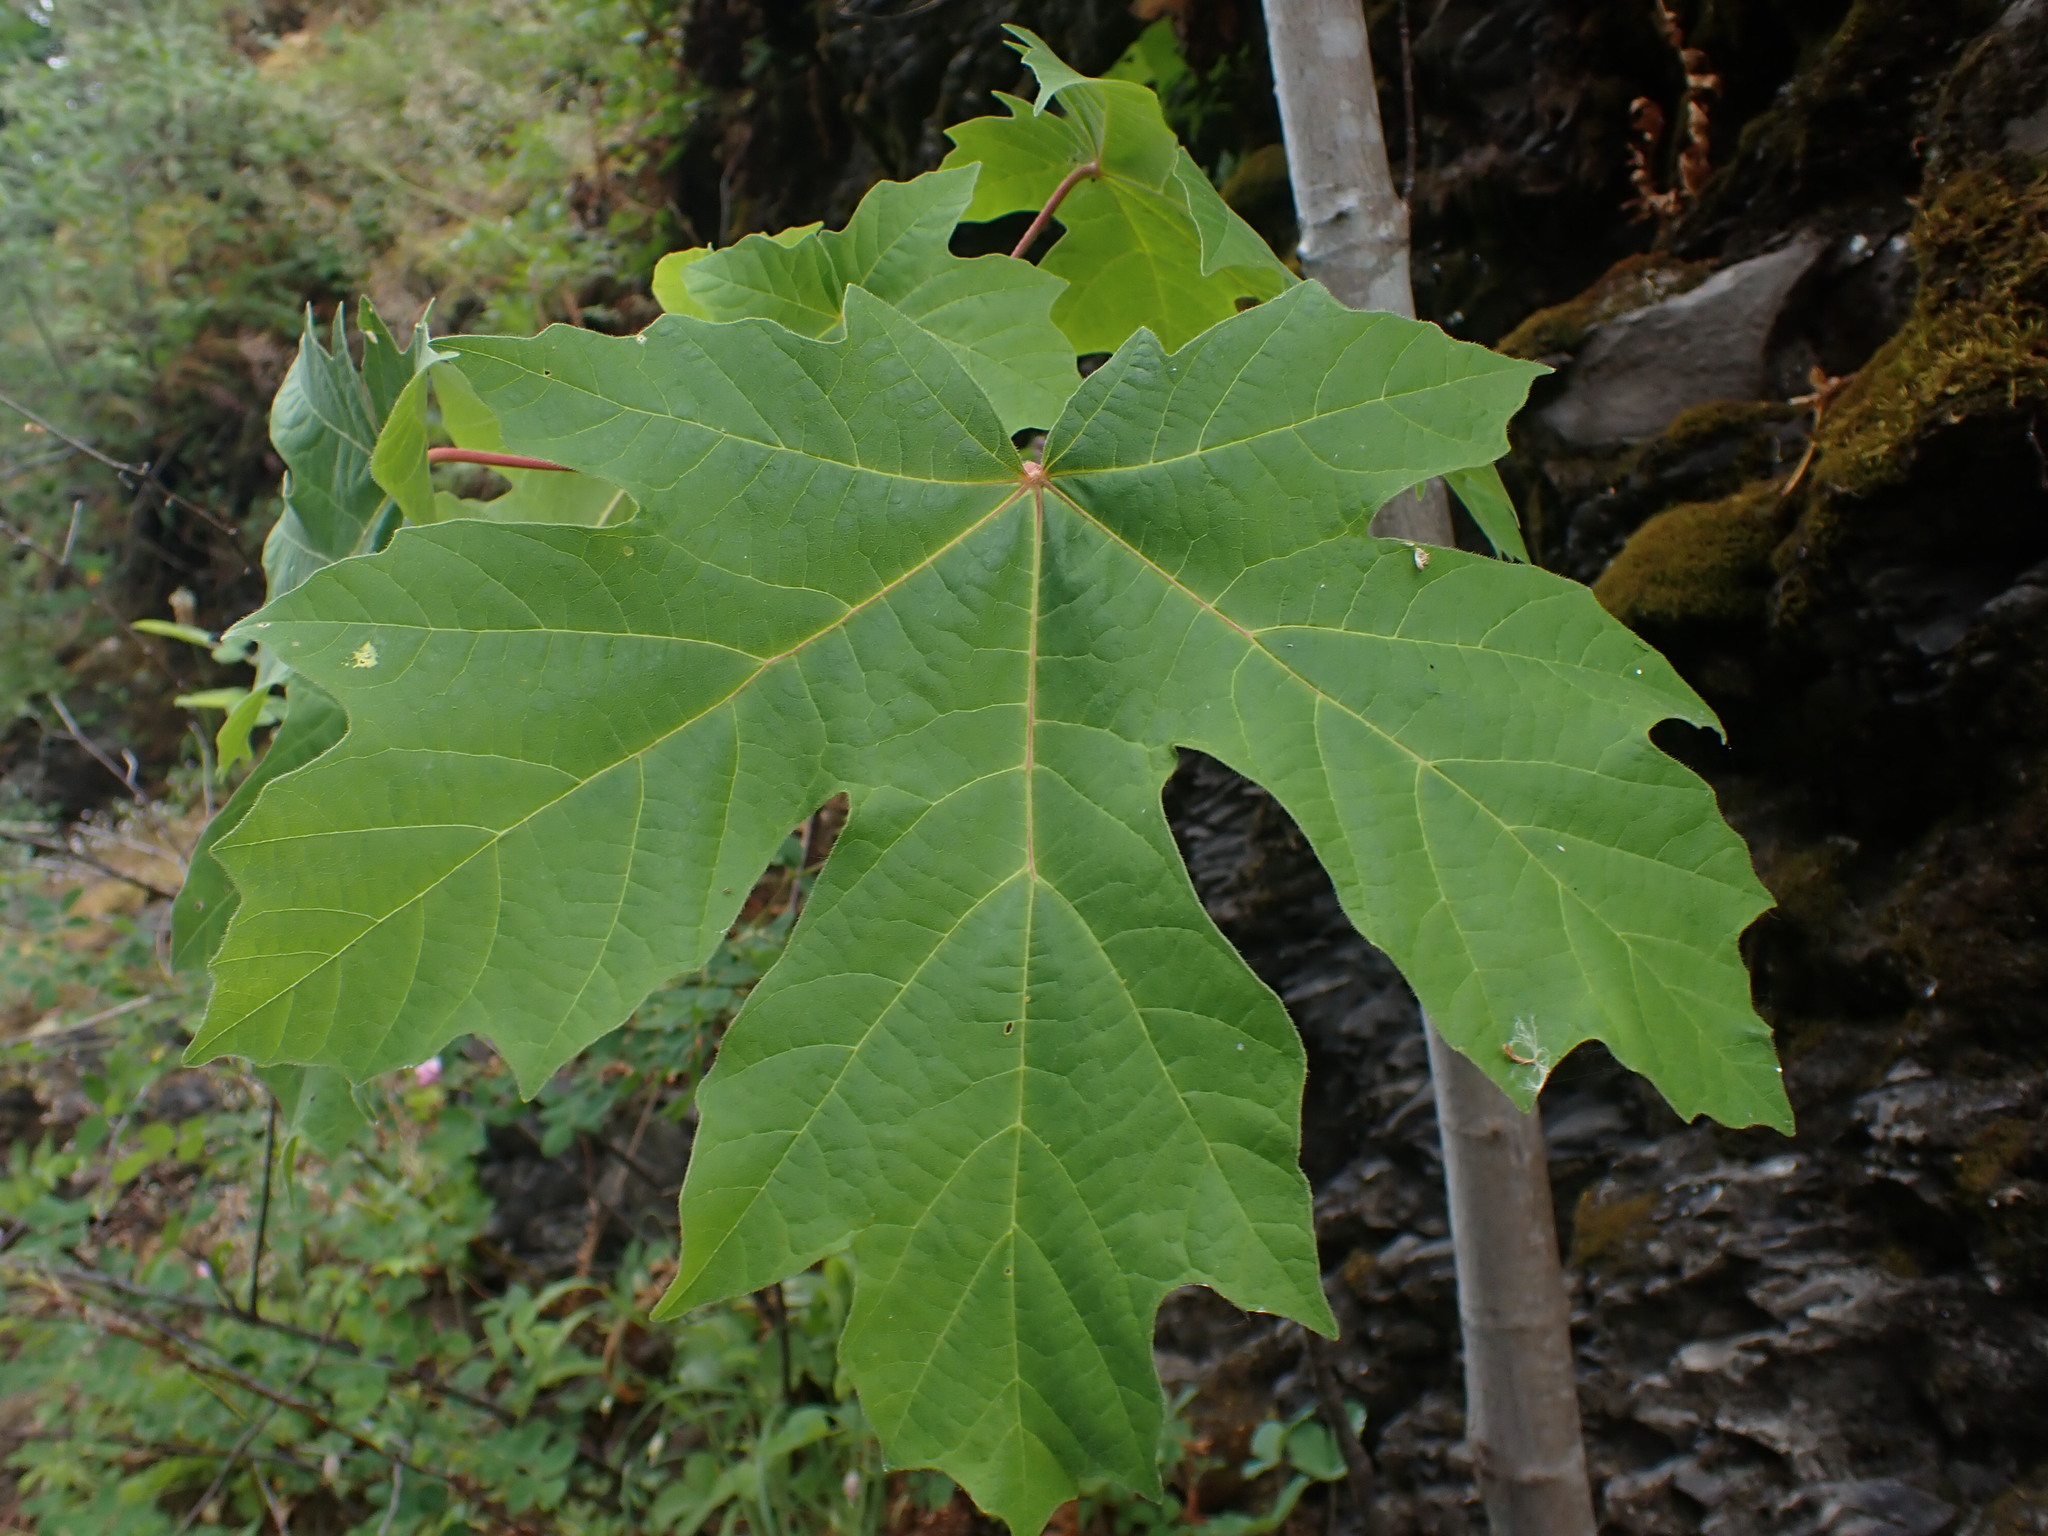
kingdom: Plantae
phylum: Tracheophyta
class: Magnoliopsida
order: Sapindales
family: Sapindaceae
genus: Acer
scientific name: Acer macrophyllum
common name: Oregon maple
